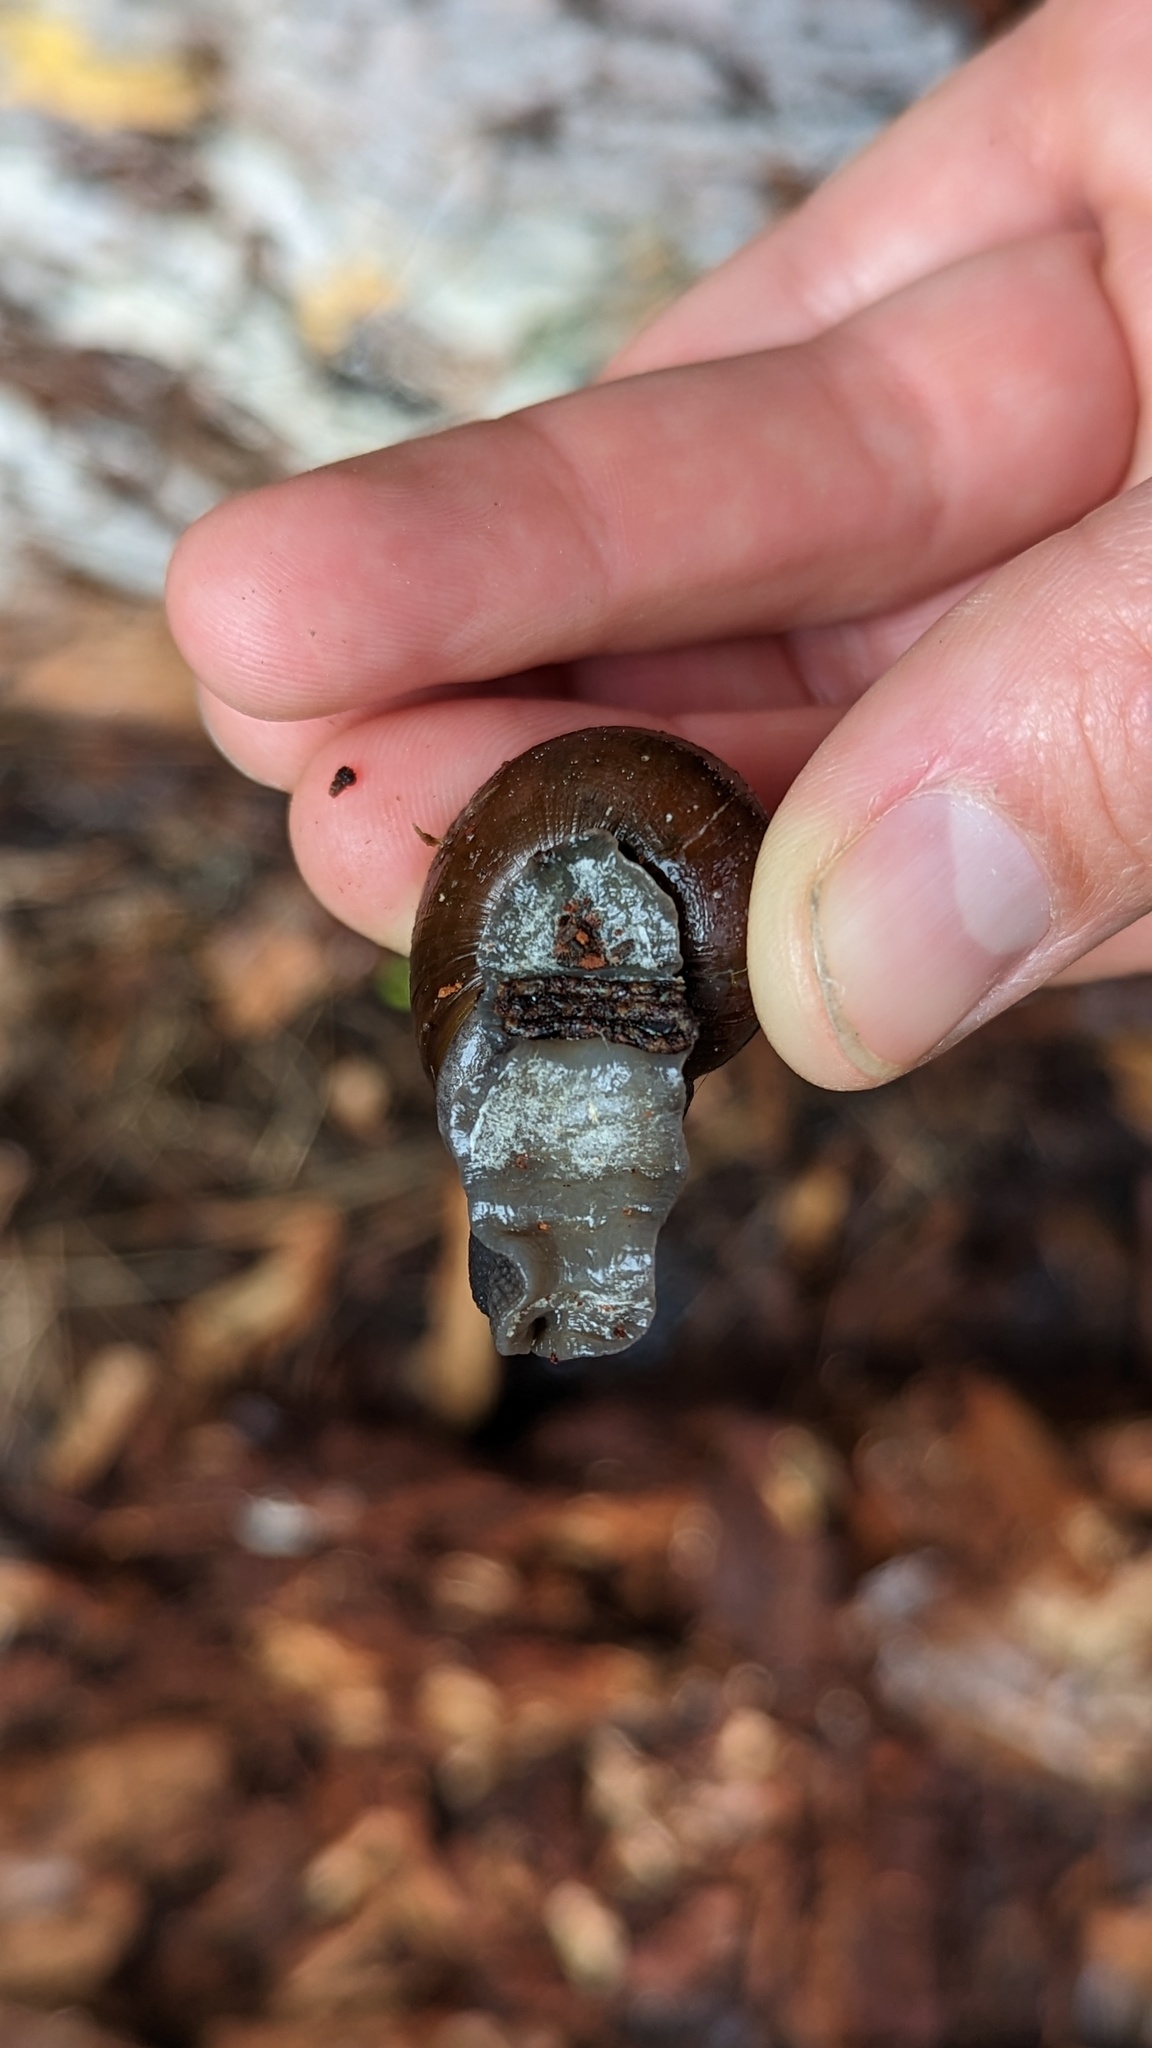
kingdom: Animalia
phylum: Mollusca
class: Gastropoda
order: Stylommatophora
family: Xanthonychidae
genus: Helminthoglypta
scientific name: Helminthoglypta umbilicata
